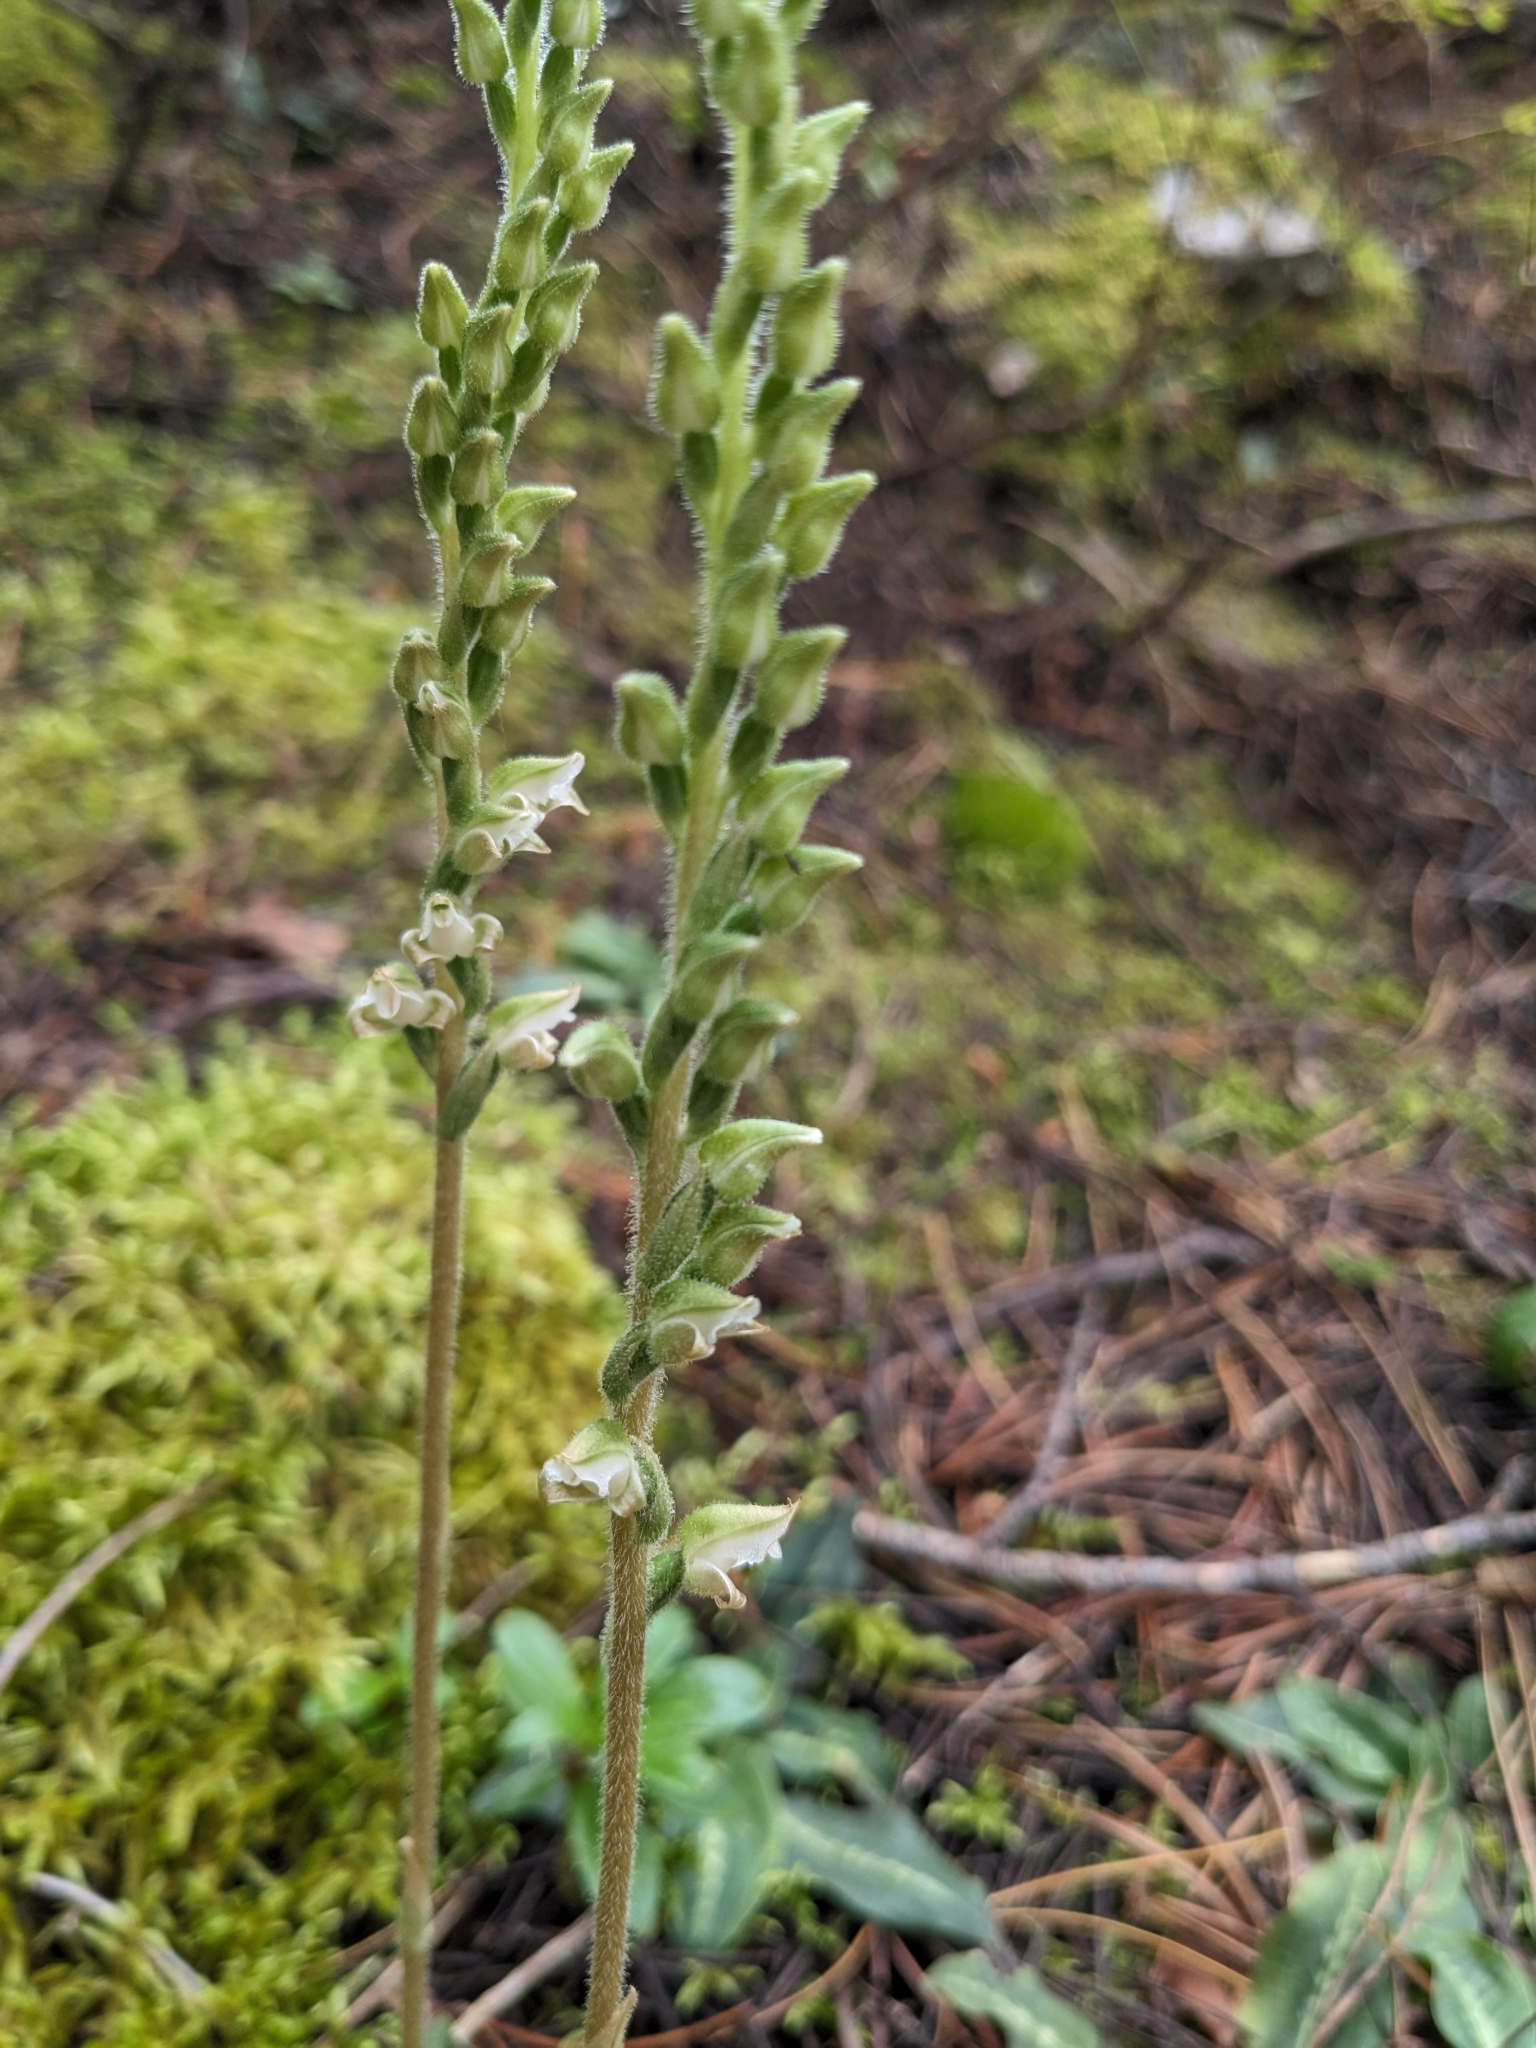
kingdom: Plantae
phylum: Tracheophyta
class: Liliopsida
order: Asparagales
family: Orchidaceae
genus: Goodyera
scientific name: Goodyera oblongifolia
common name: Giant rattlesnake-plantain
